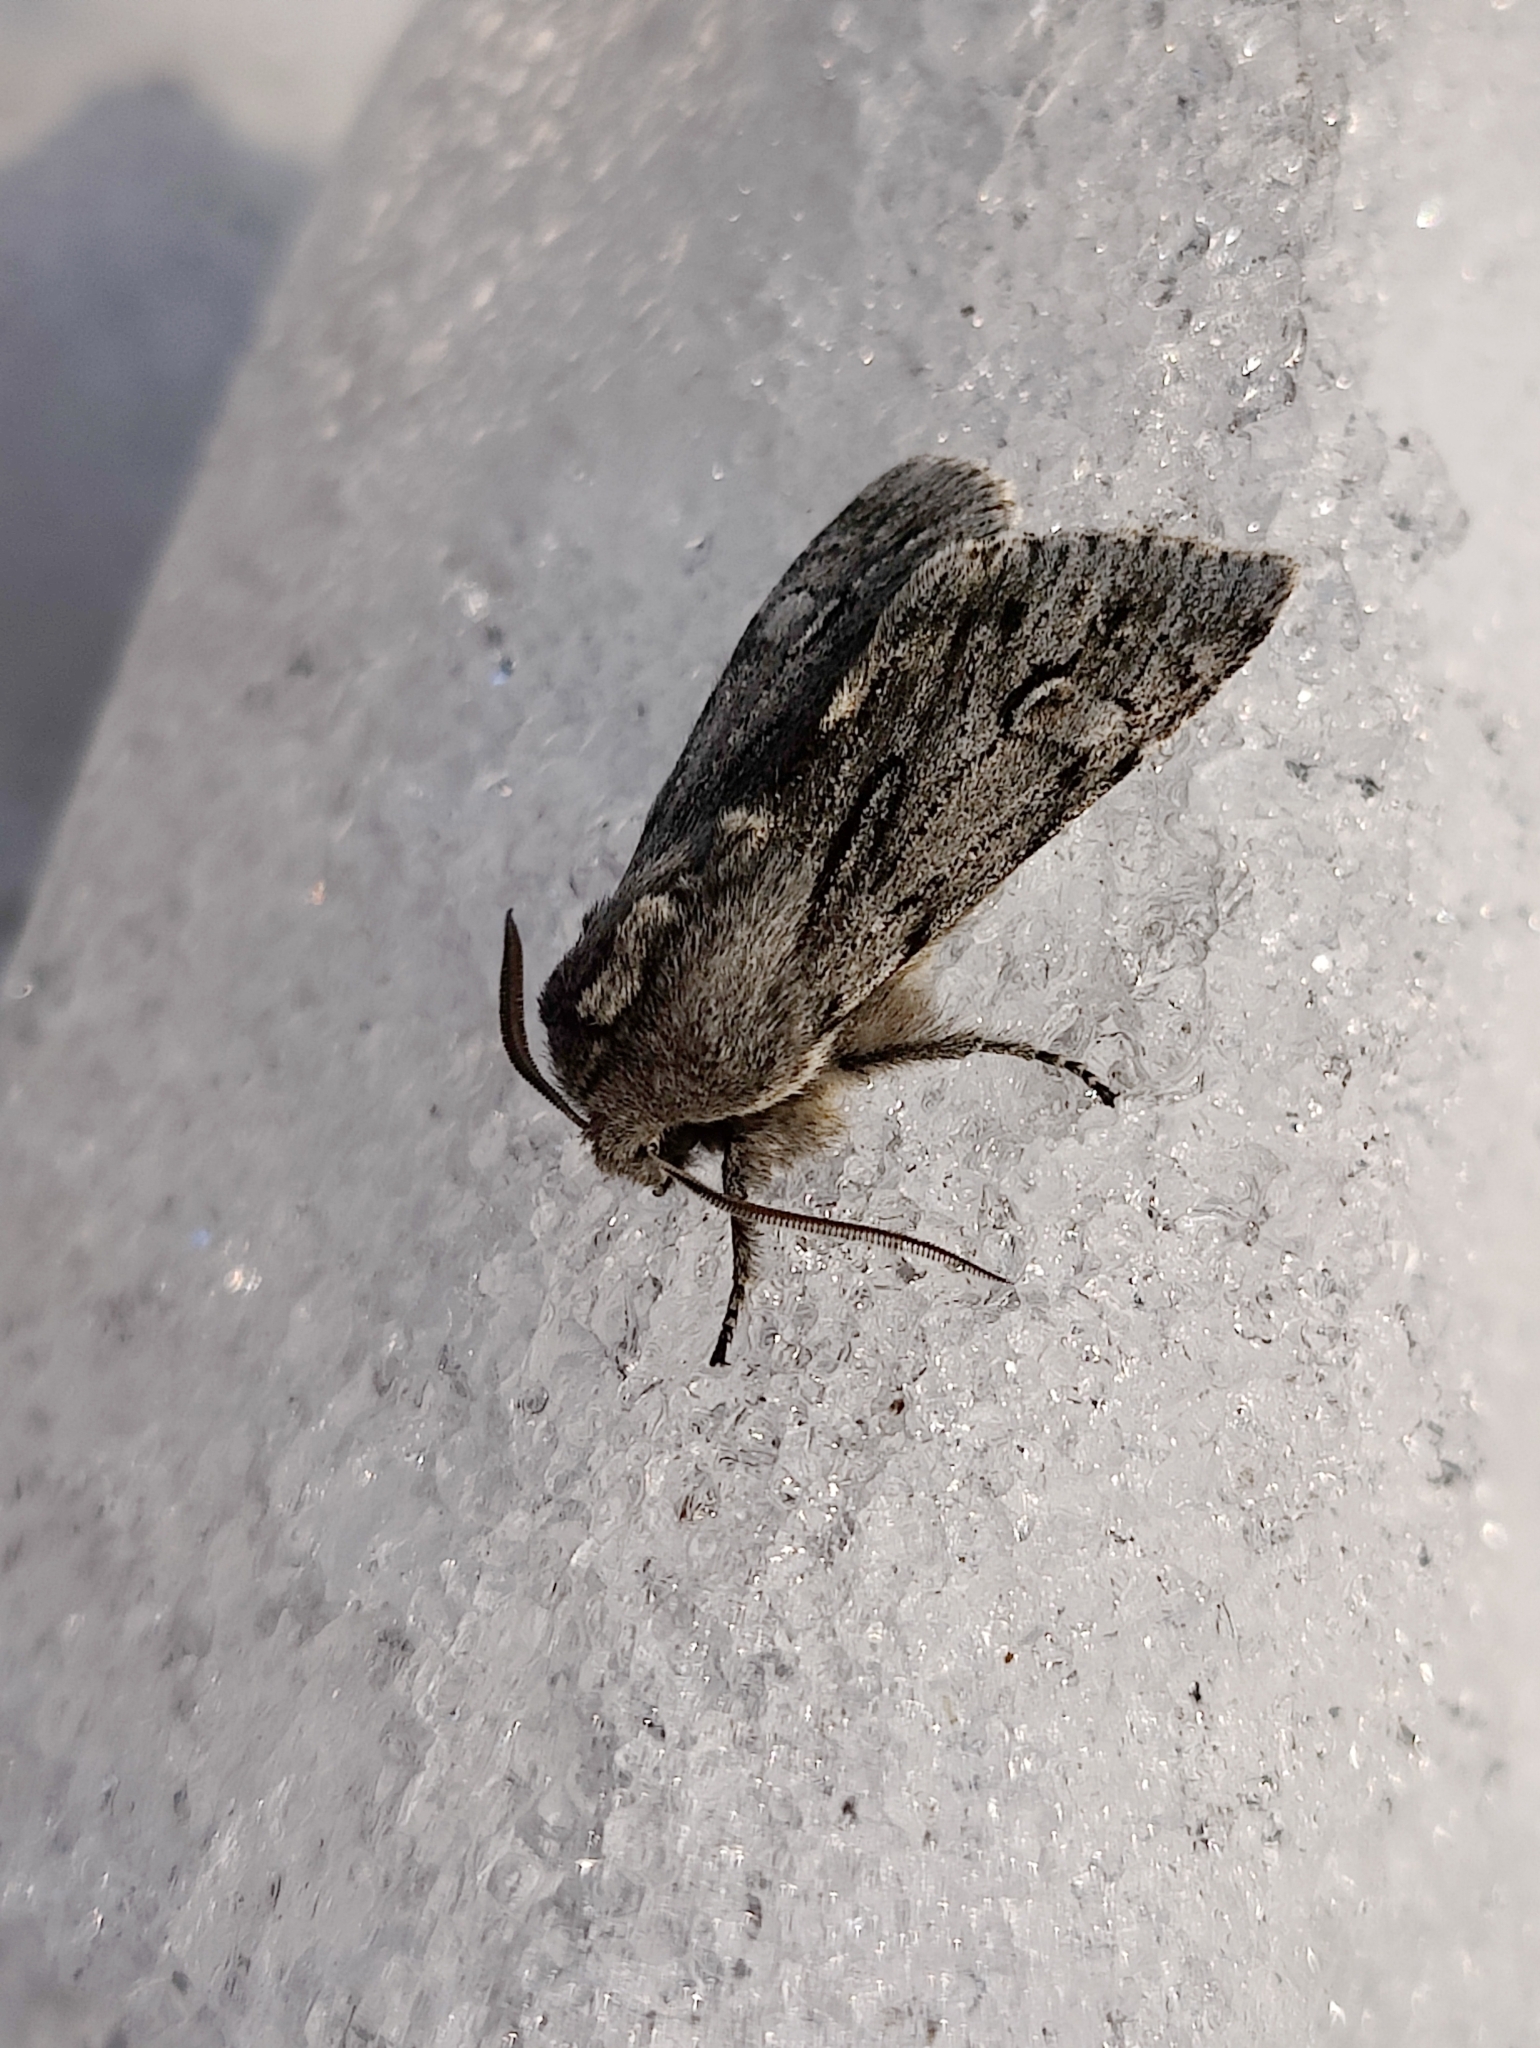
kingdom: Animalia
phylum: Arthropoda
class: Insecta
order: Lepidoptera
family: Noctuidae
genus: Brachionycha
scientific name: Brachionycha nubeculosa
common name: Rannoch sprawler
